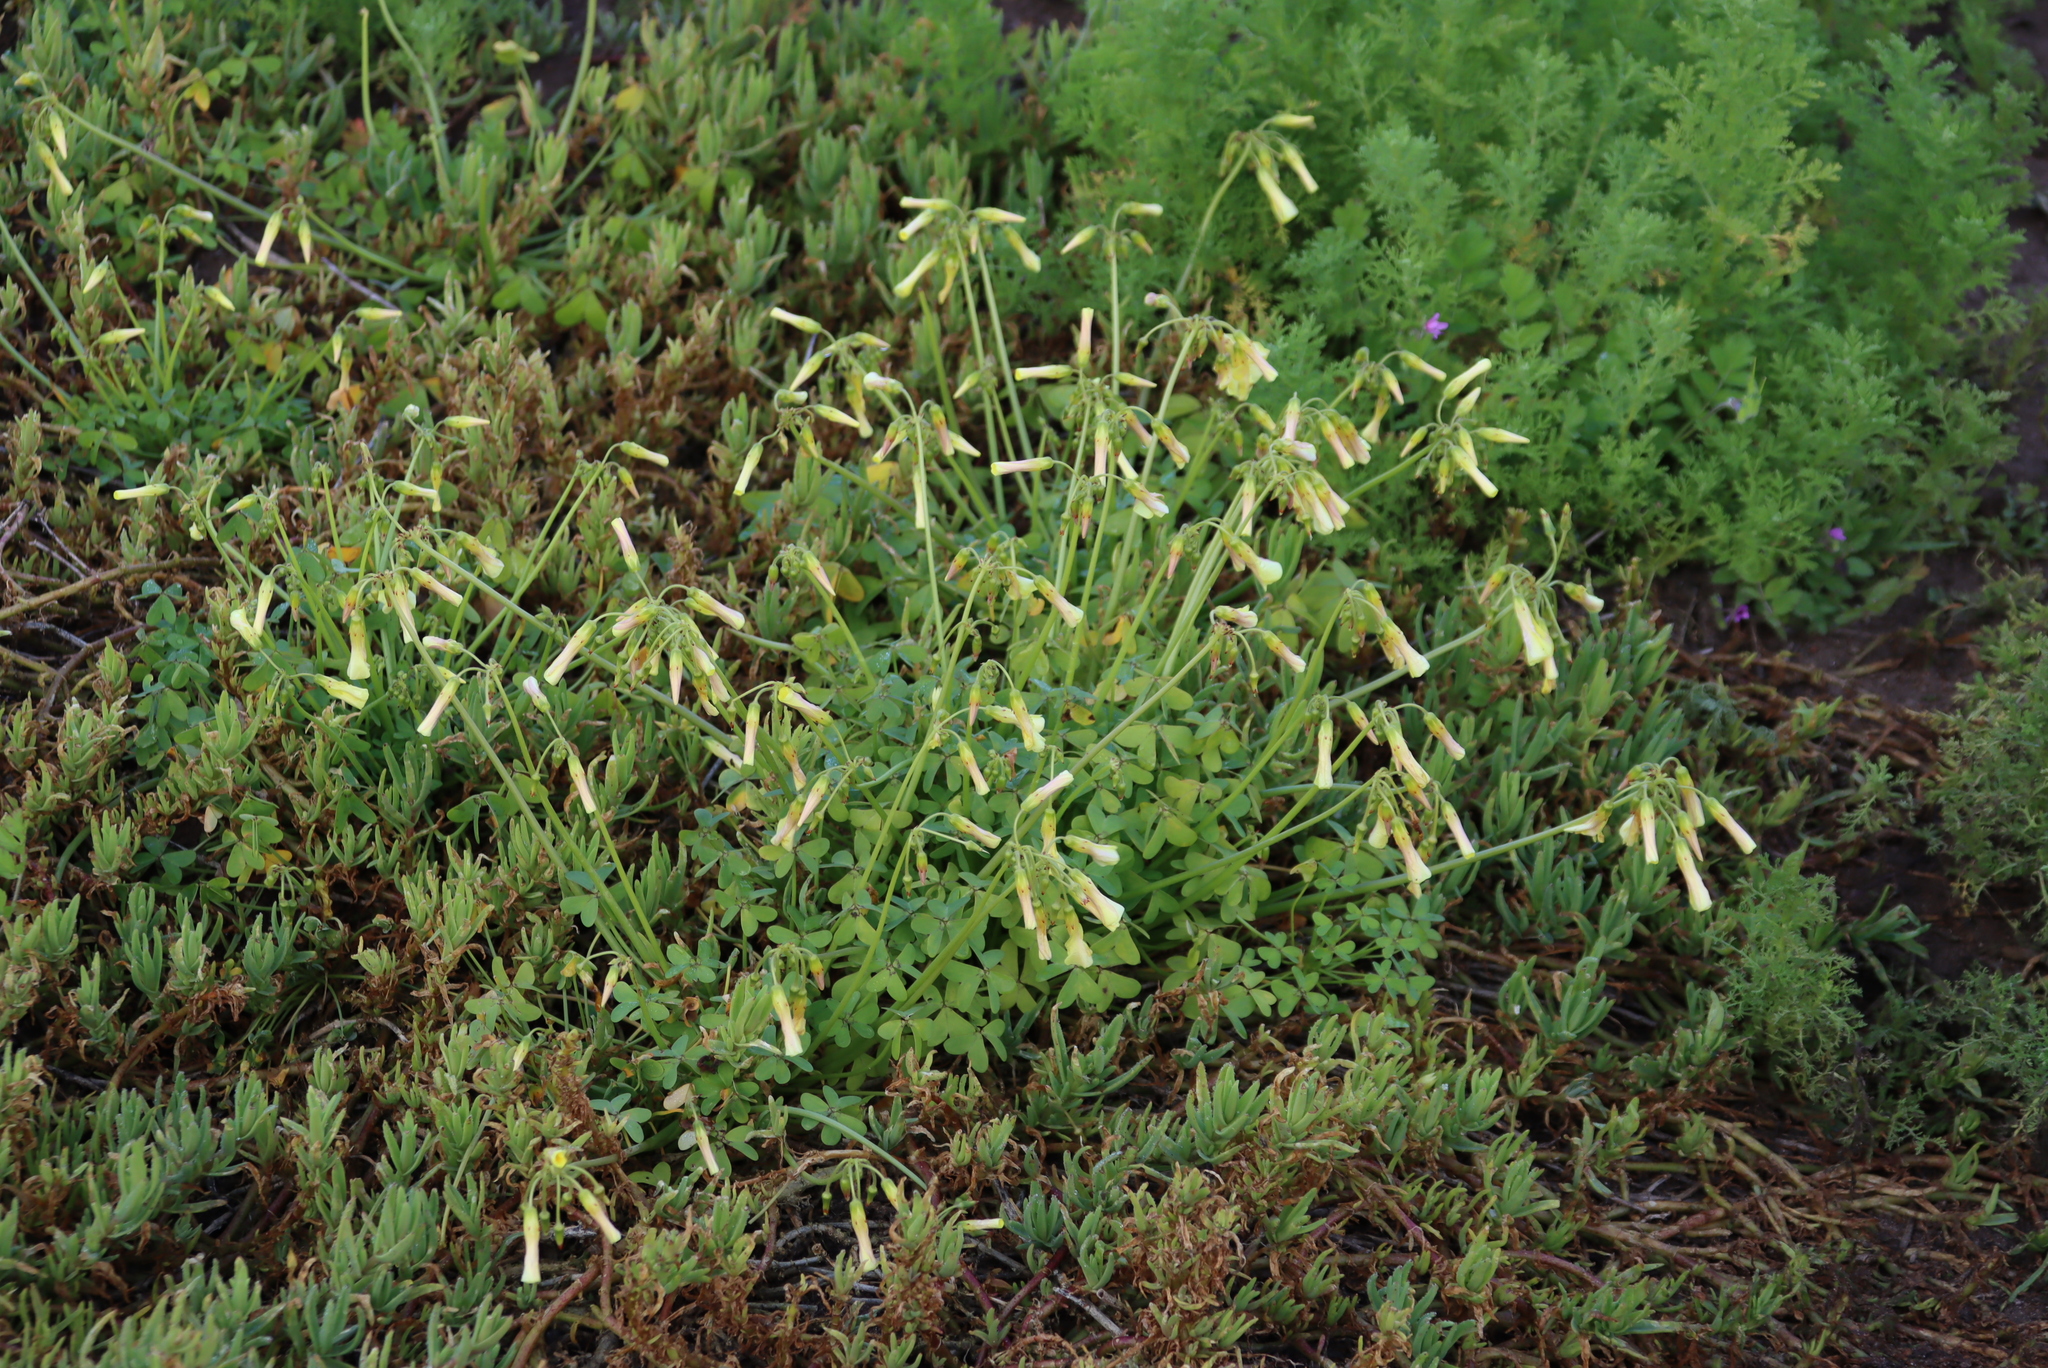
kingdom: Plantae
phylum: Tracheophyta
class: Magnoliopsida
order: Oxalidales
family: Oxalidaceae
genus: Oxalis
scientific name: Oxalis pes-caprae
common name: Bermuda-buttercup
